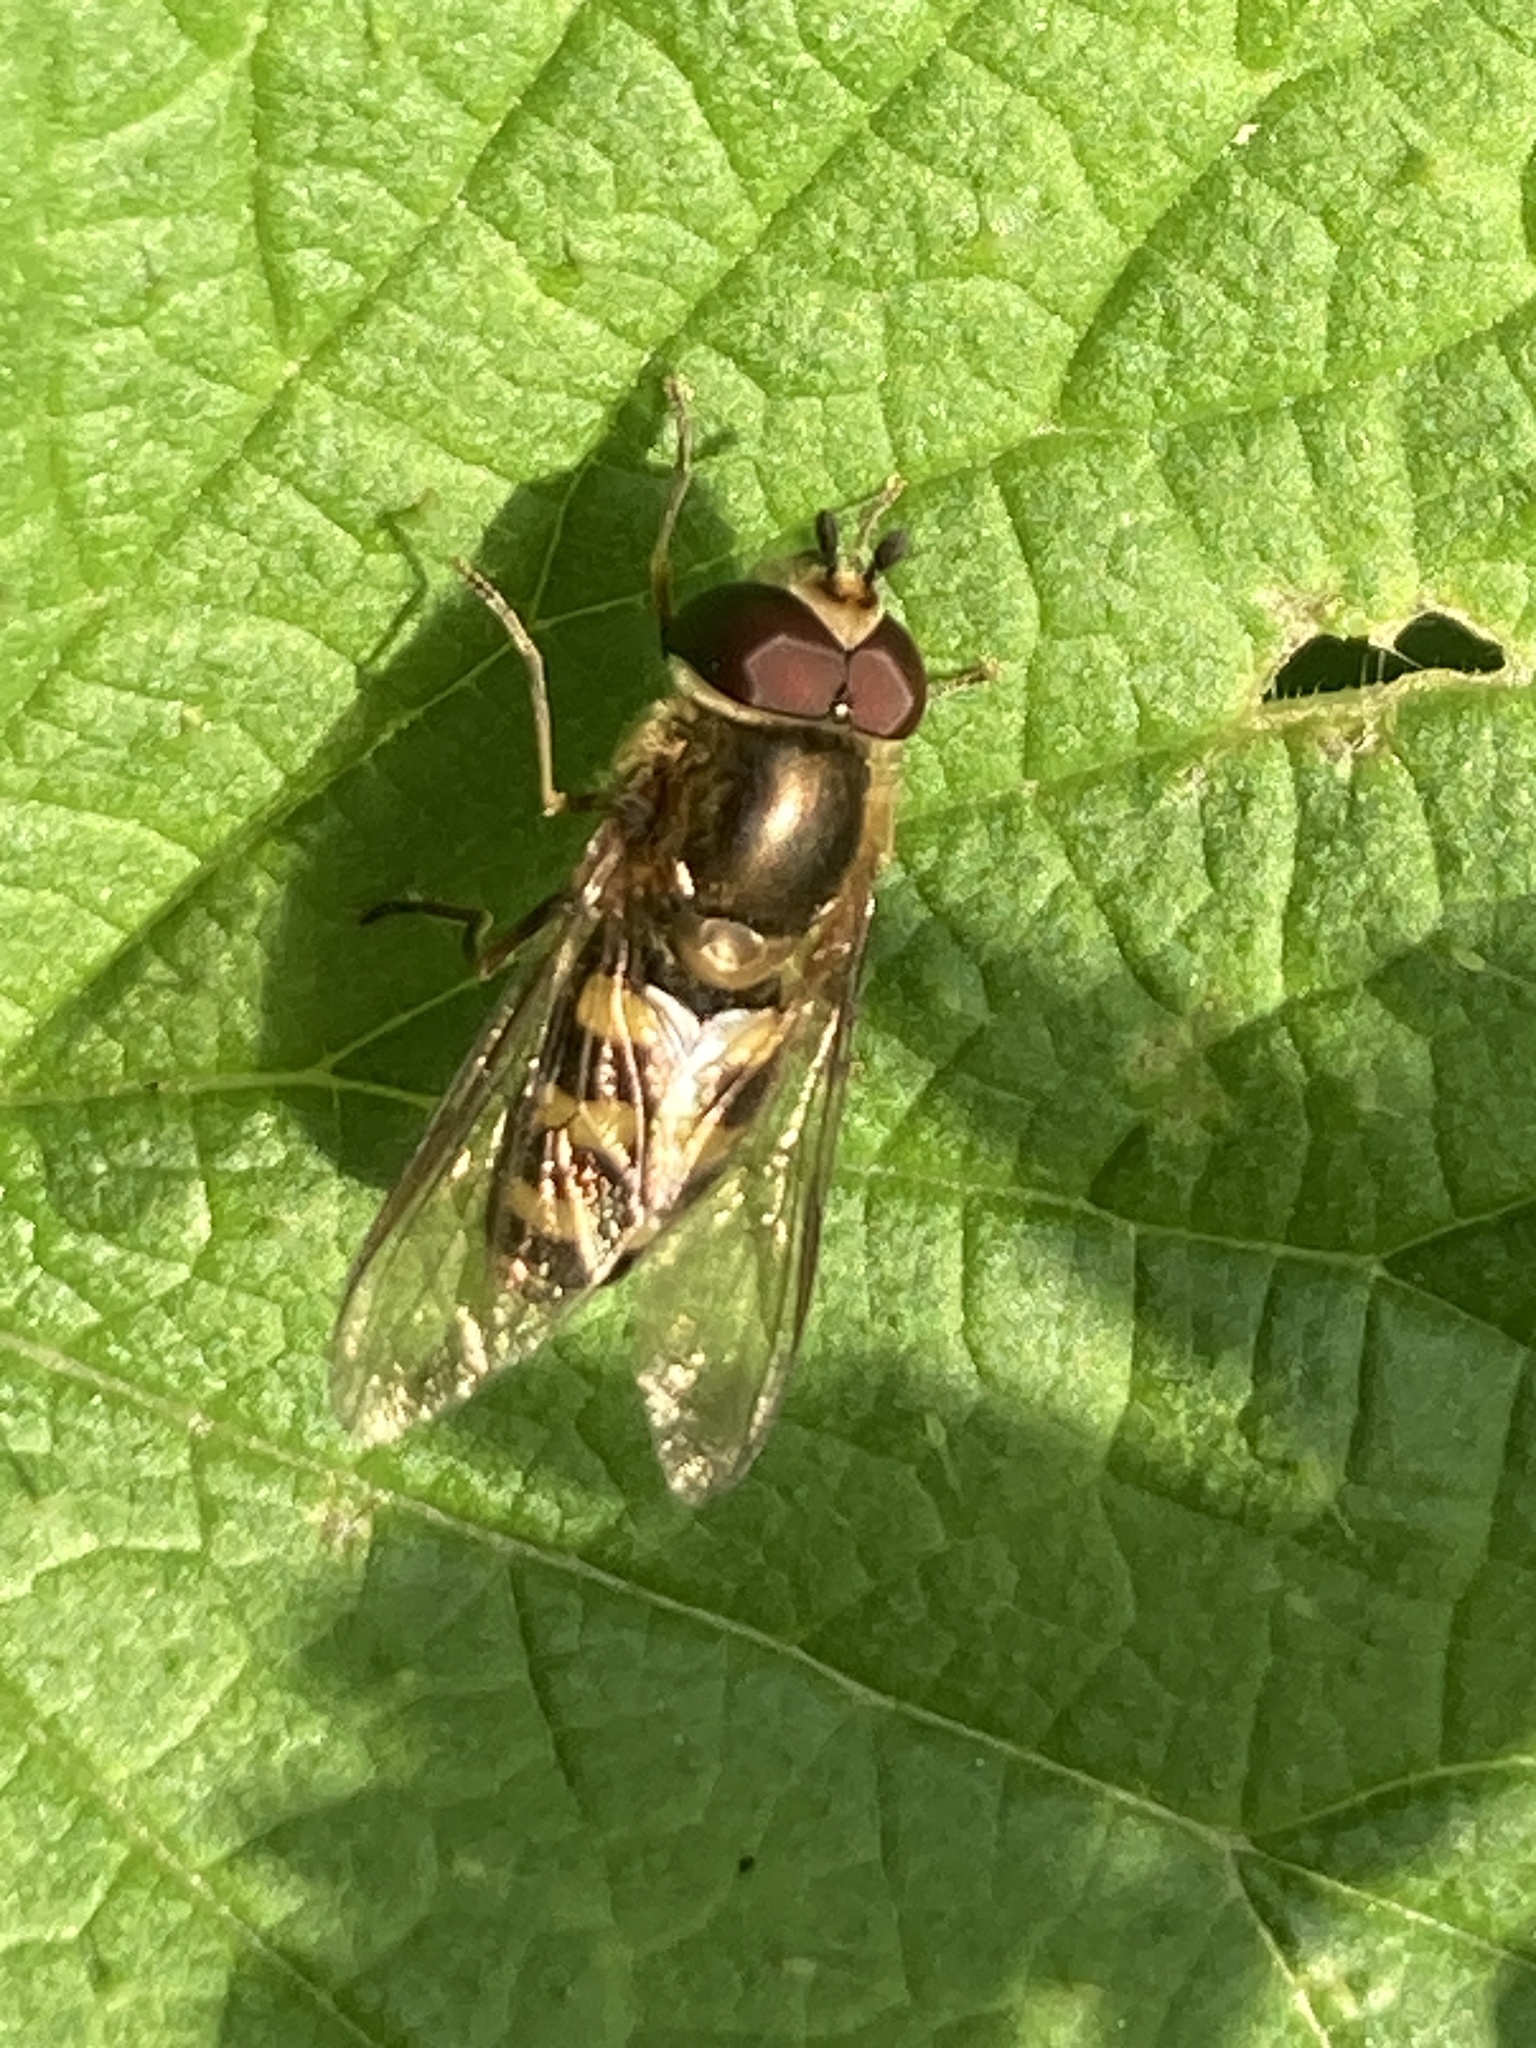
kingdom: Animalia
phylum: Arthropoda
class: Insecta
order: Diptera
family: Syrphidae
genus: Eupeodes
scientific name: Eupeodes corollae
